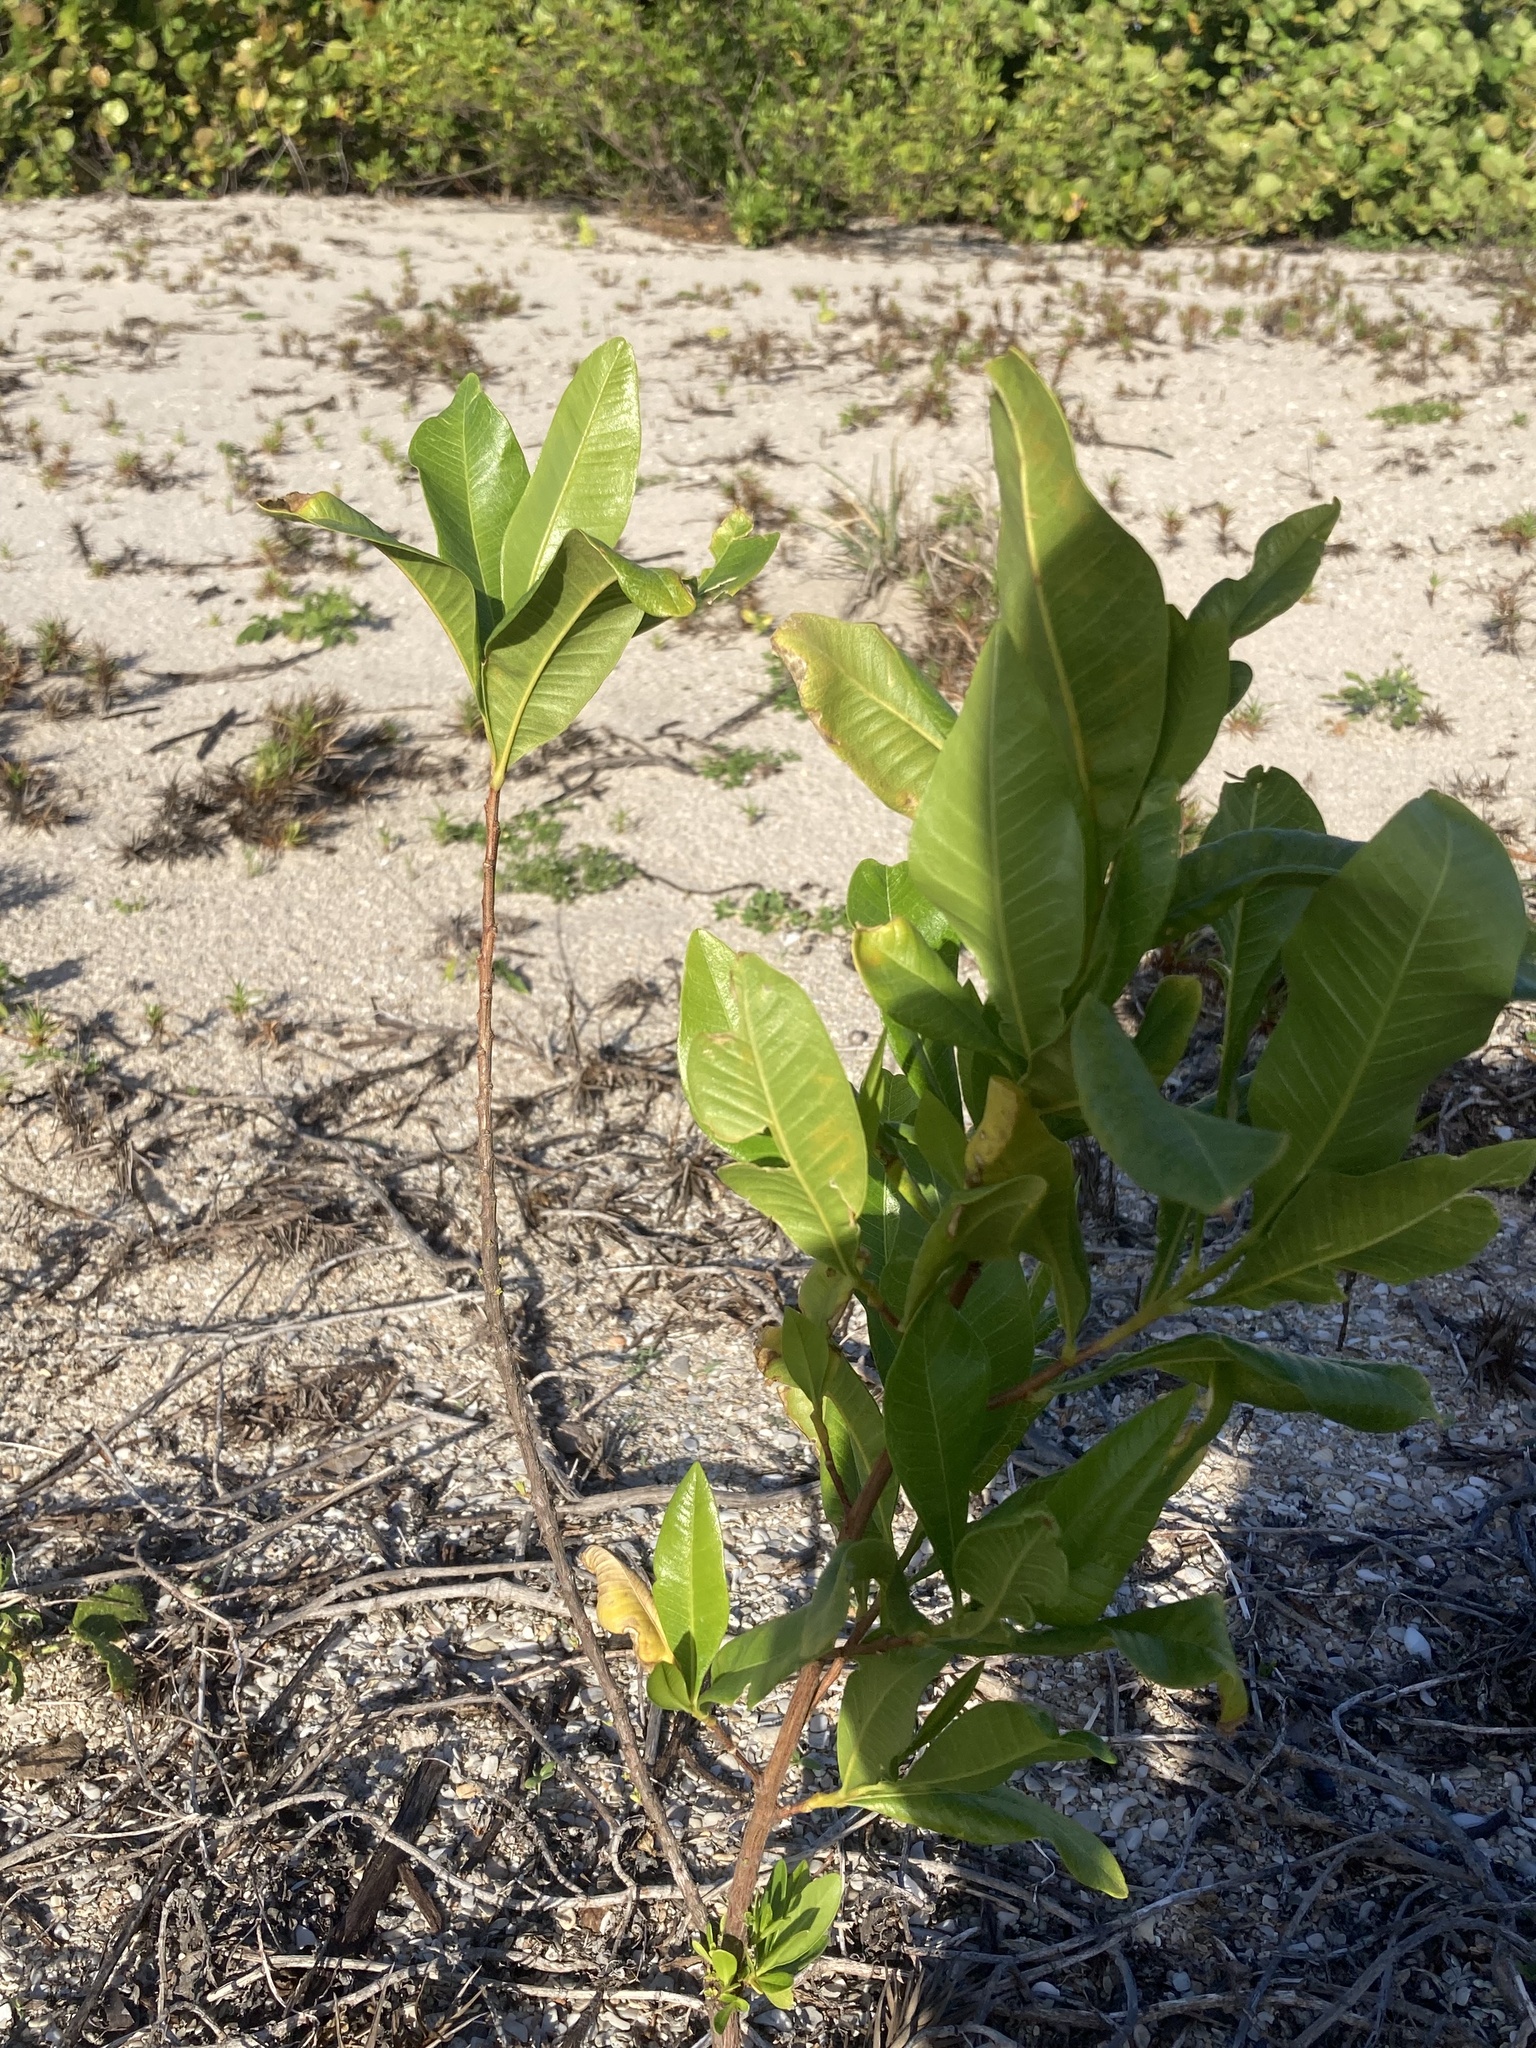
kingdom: Plantae
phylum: Tracheophyta
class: Magnoliopsida
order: Sapindales
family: Sapindaceae
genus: Dodonaea
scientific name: Dodonaea viscosa
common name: Hopbush
